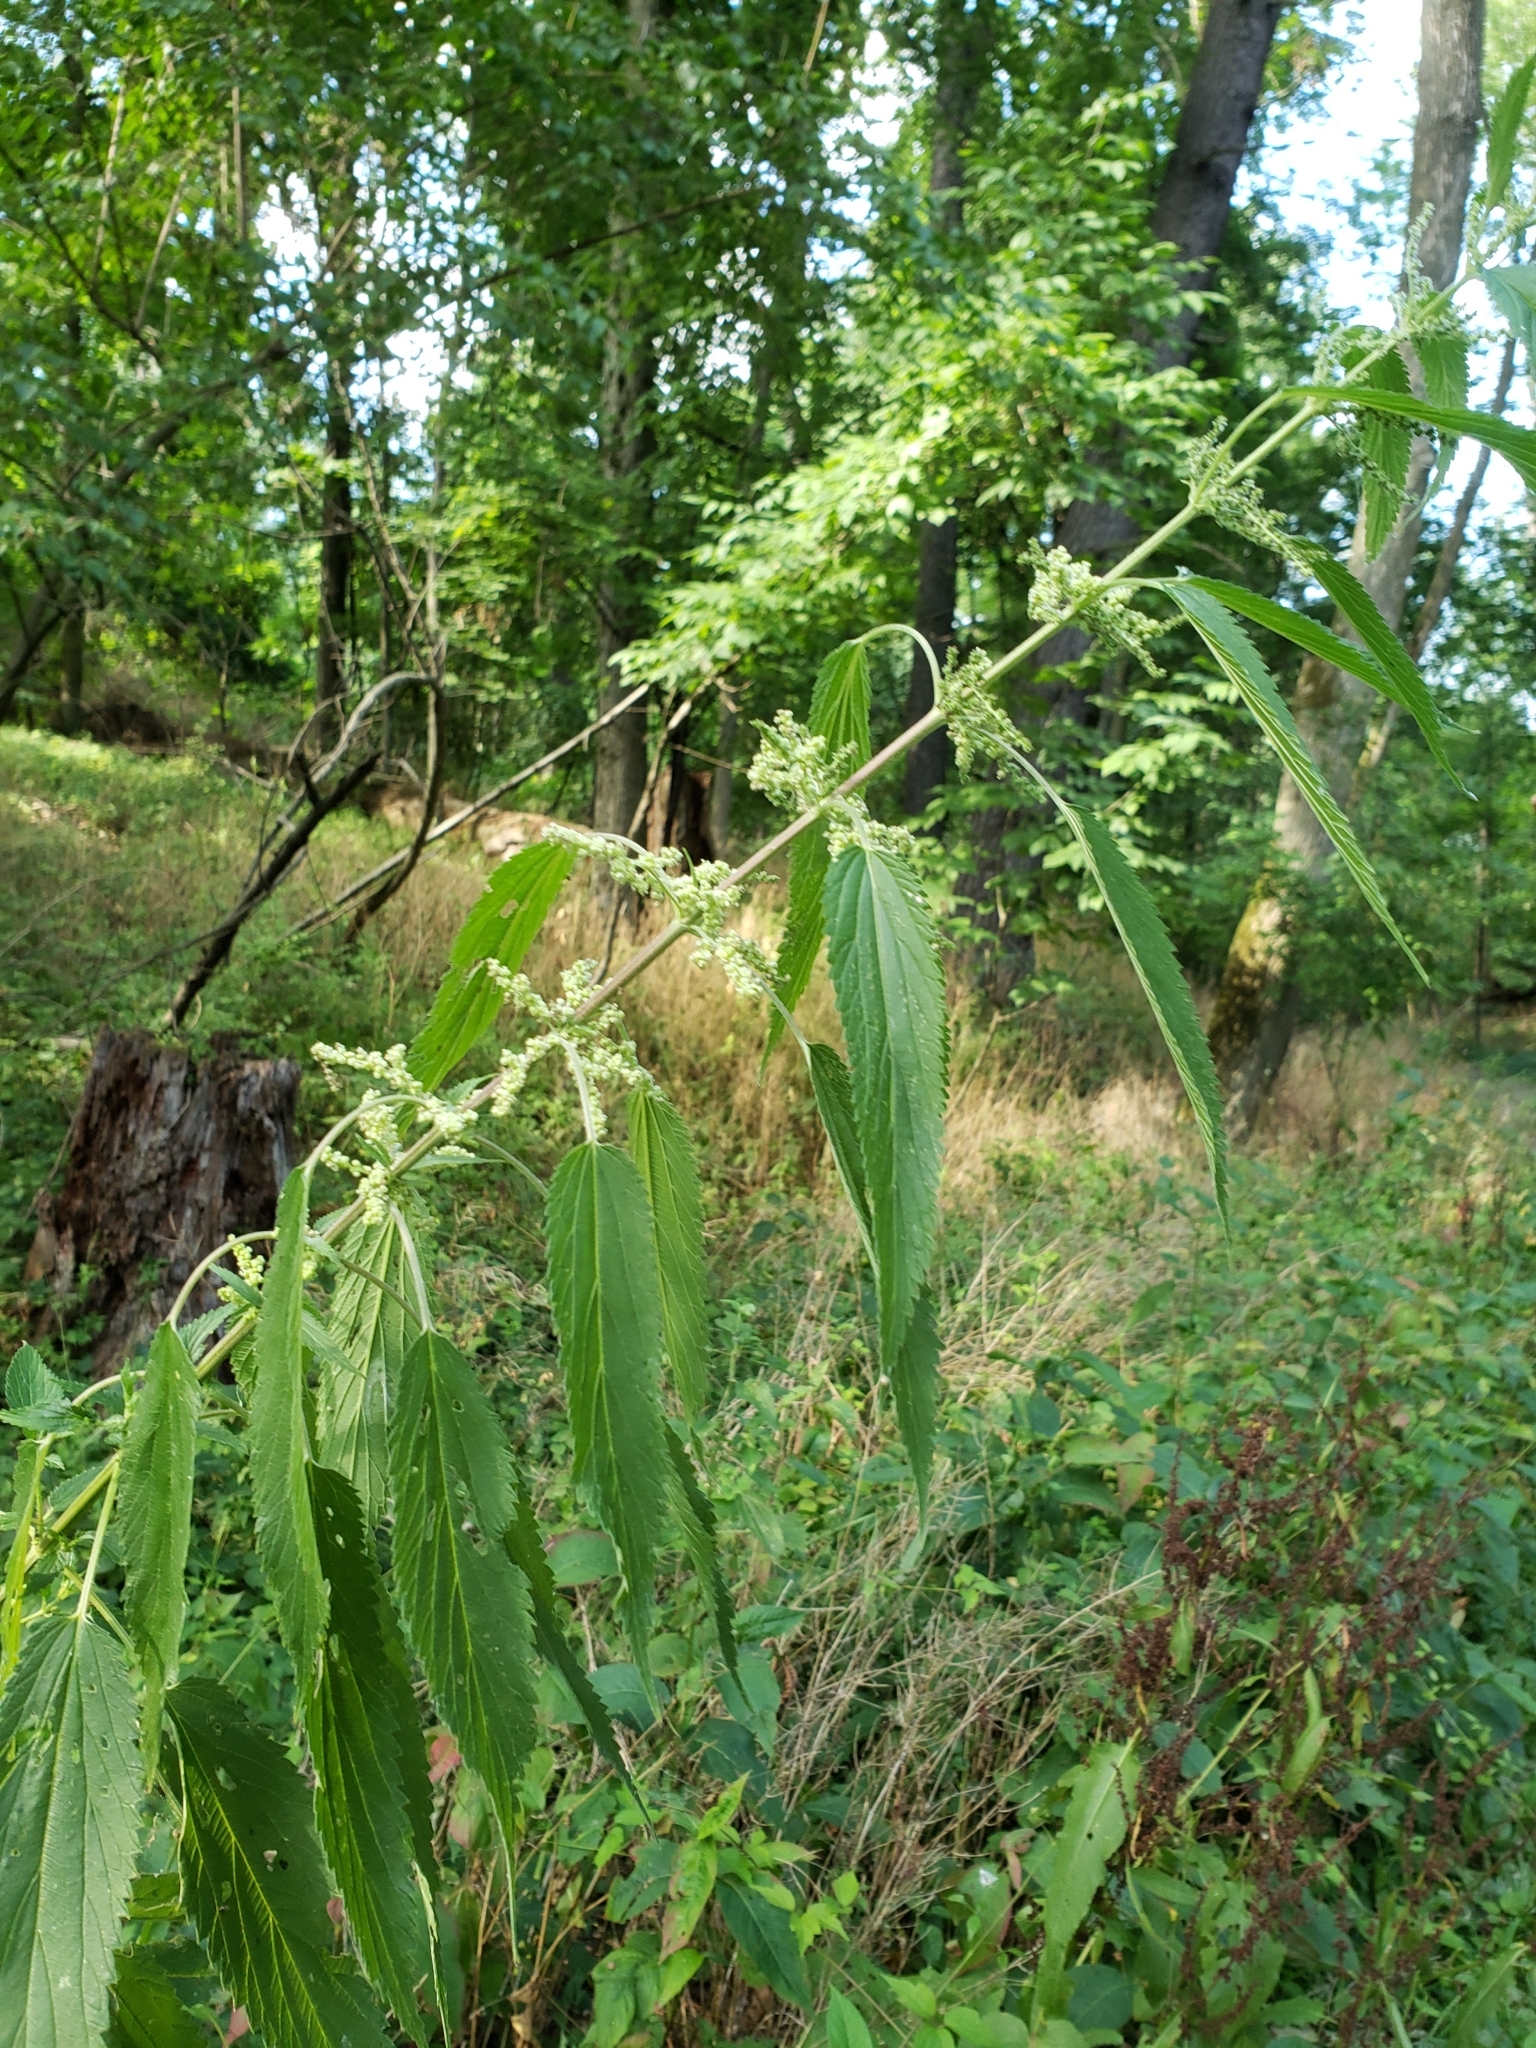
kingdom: Plantae
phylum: Tracheophyta
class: Magnoliopsida
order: Rosales
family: Urticaceae
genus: Urtica
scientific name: Urtica dioica
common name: Common nettle
